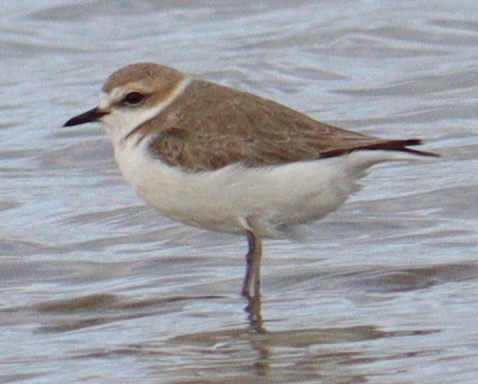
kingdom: Animalia
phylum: Chordata
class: Aves
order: Charadriiformes
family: Charadriidae
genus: Charadrius
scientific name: Charadrius alexandrinus
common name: Kentish plover
